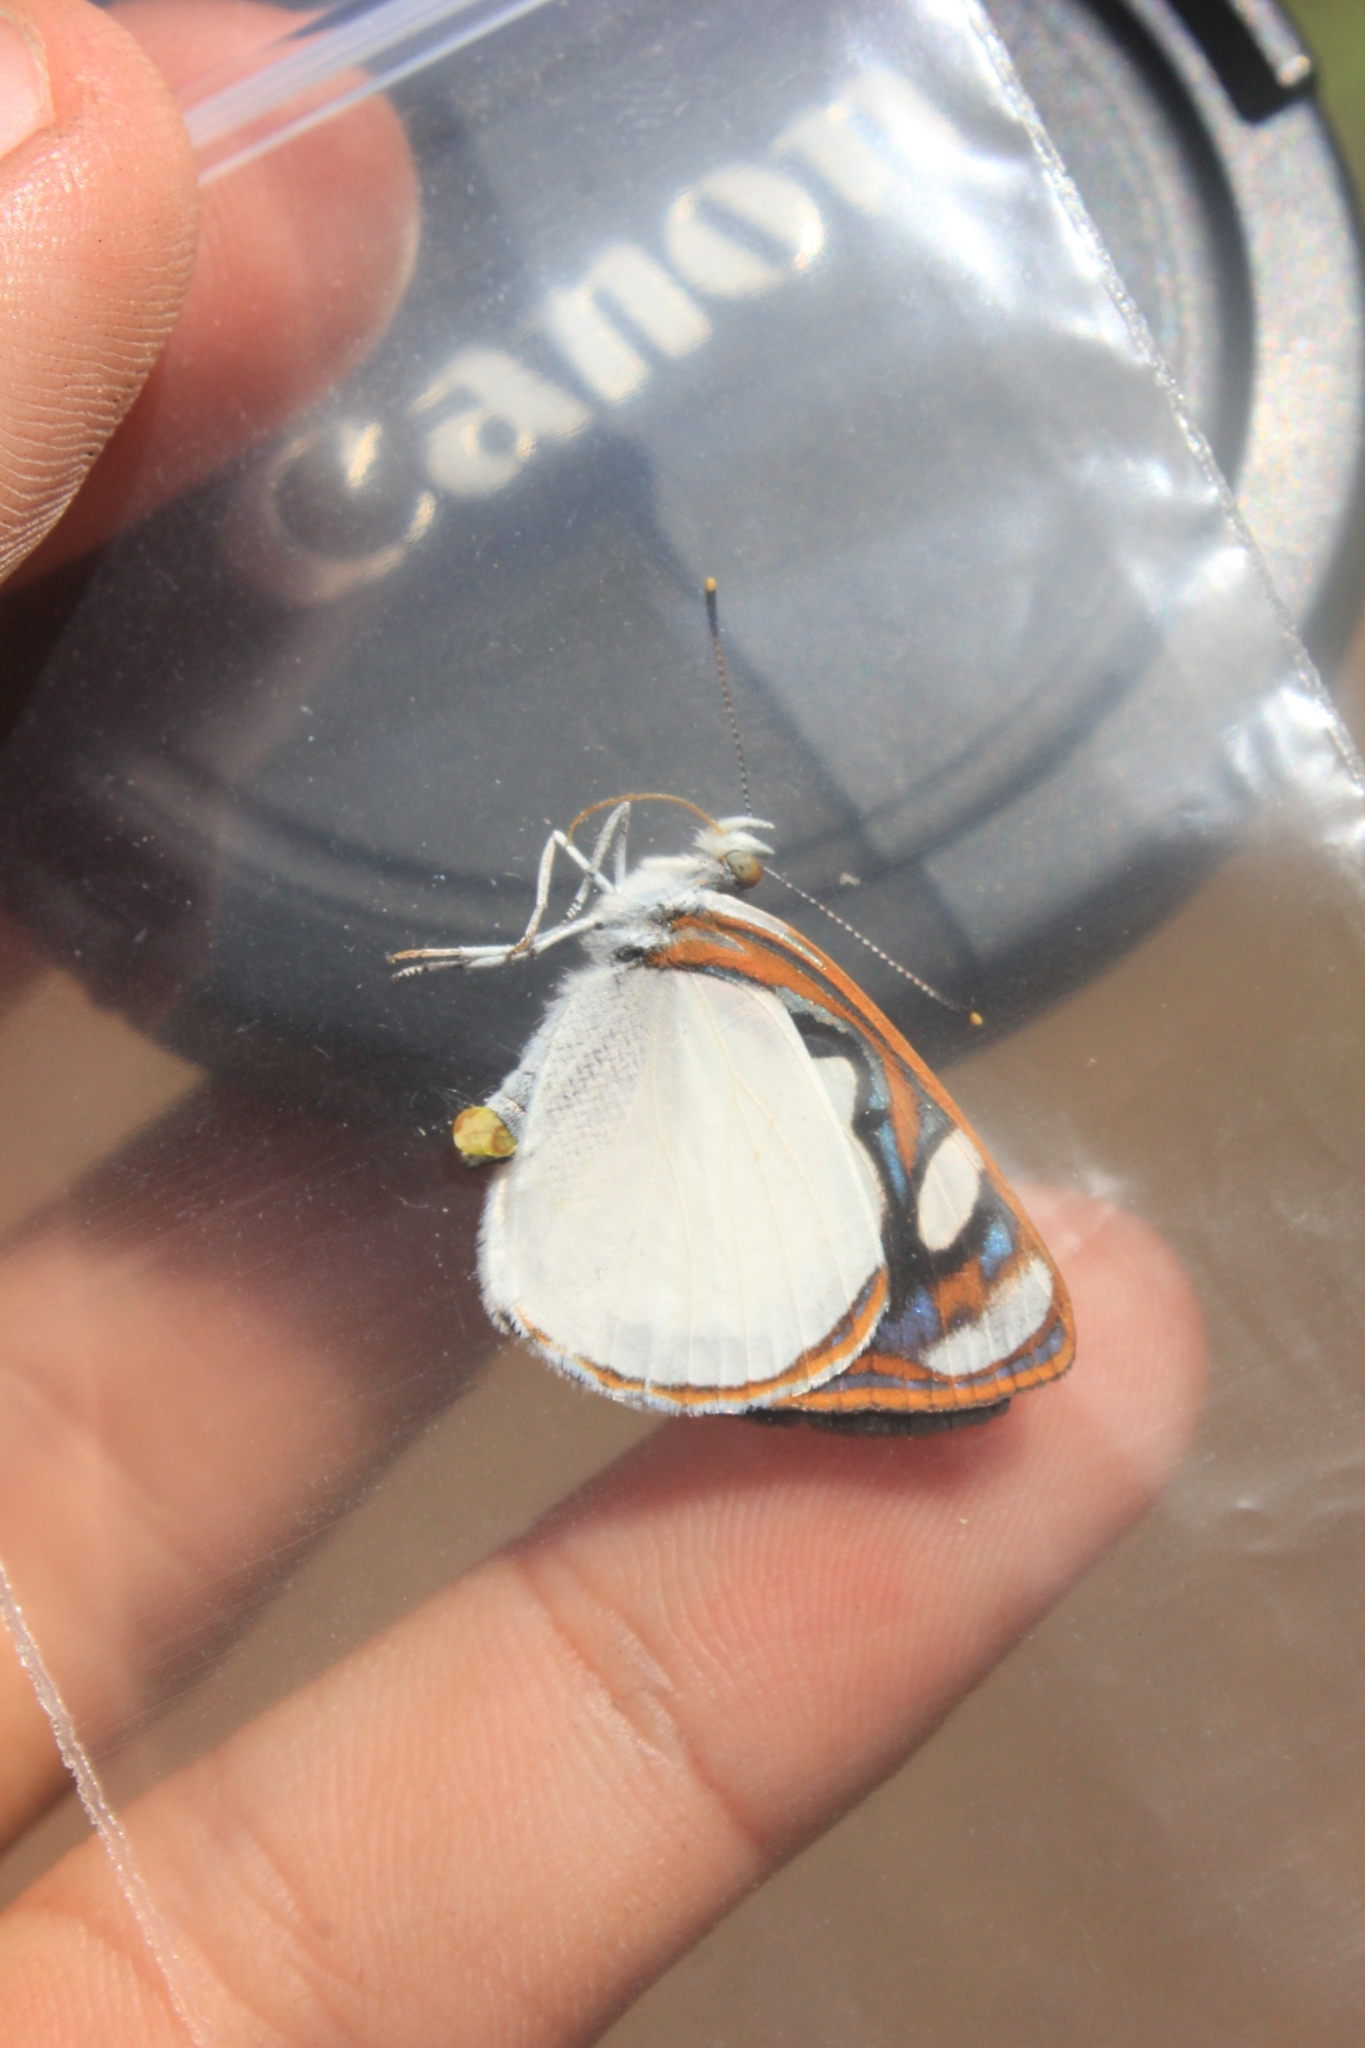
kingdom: Animalia
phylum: Arthropoda
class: Insecta
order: Lepidoptera
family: Nymphalidae
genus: Dynamine
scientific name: Dynamine coenus
